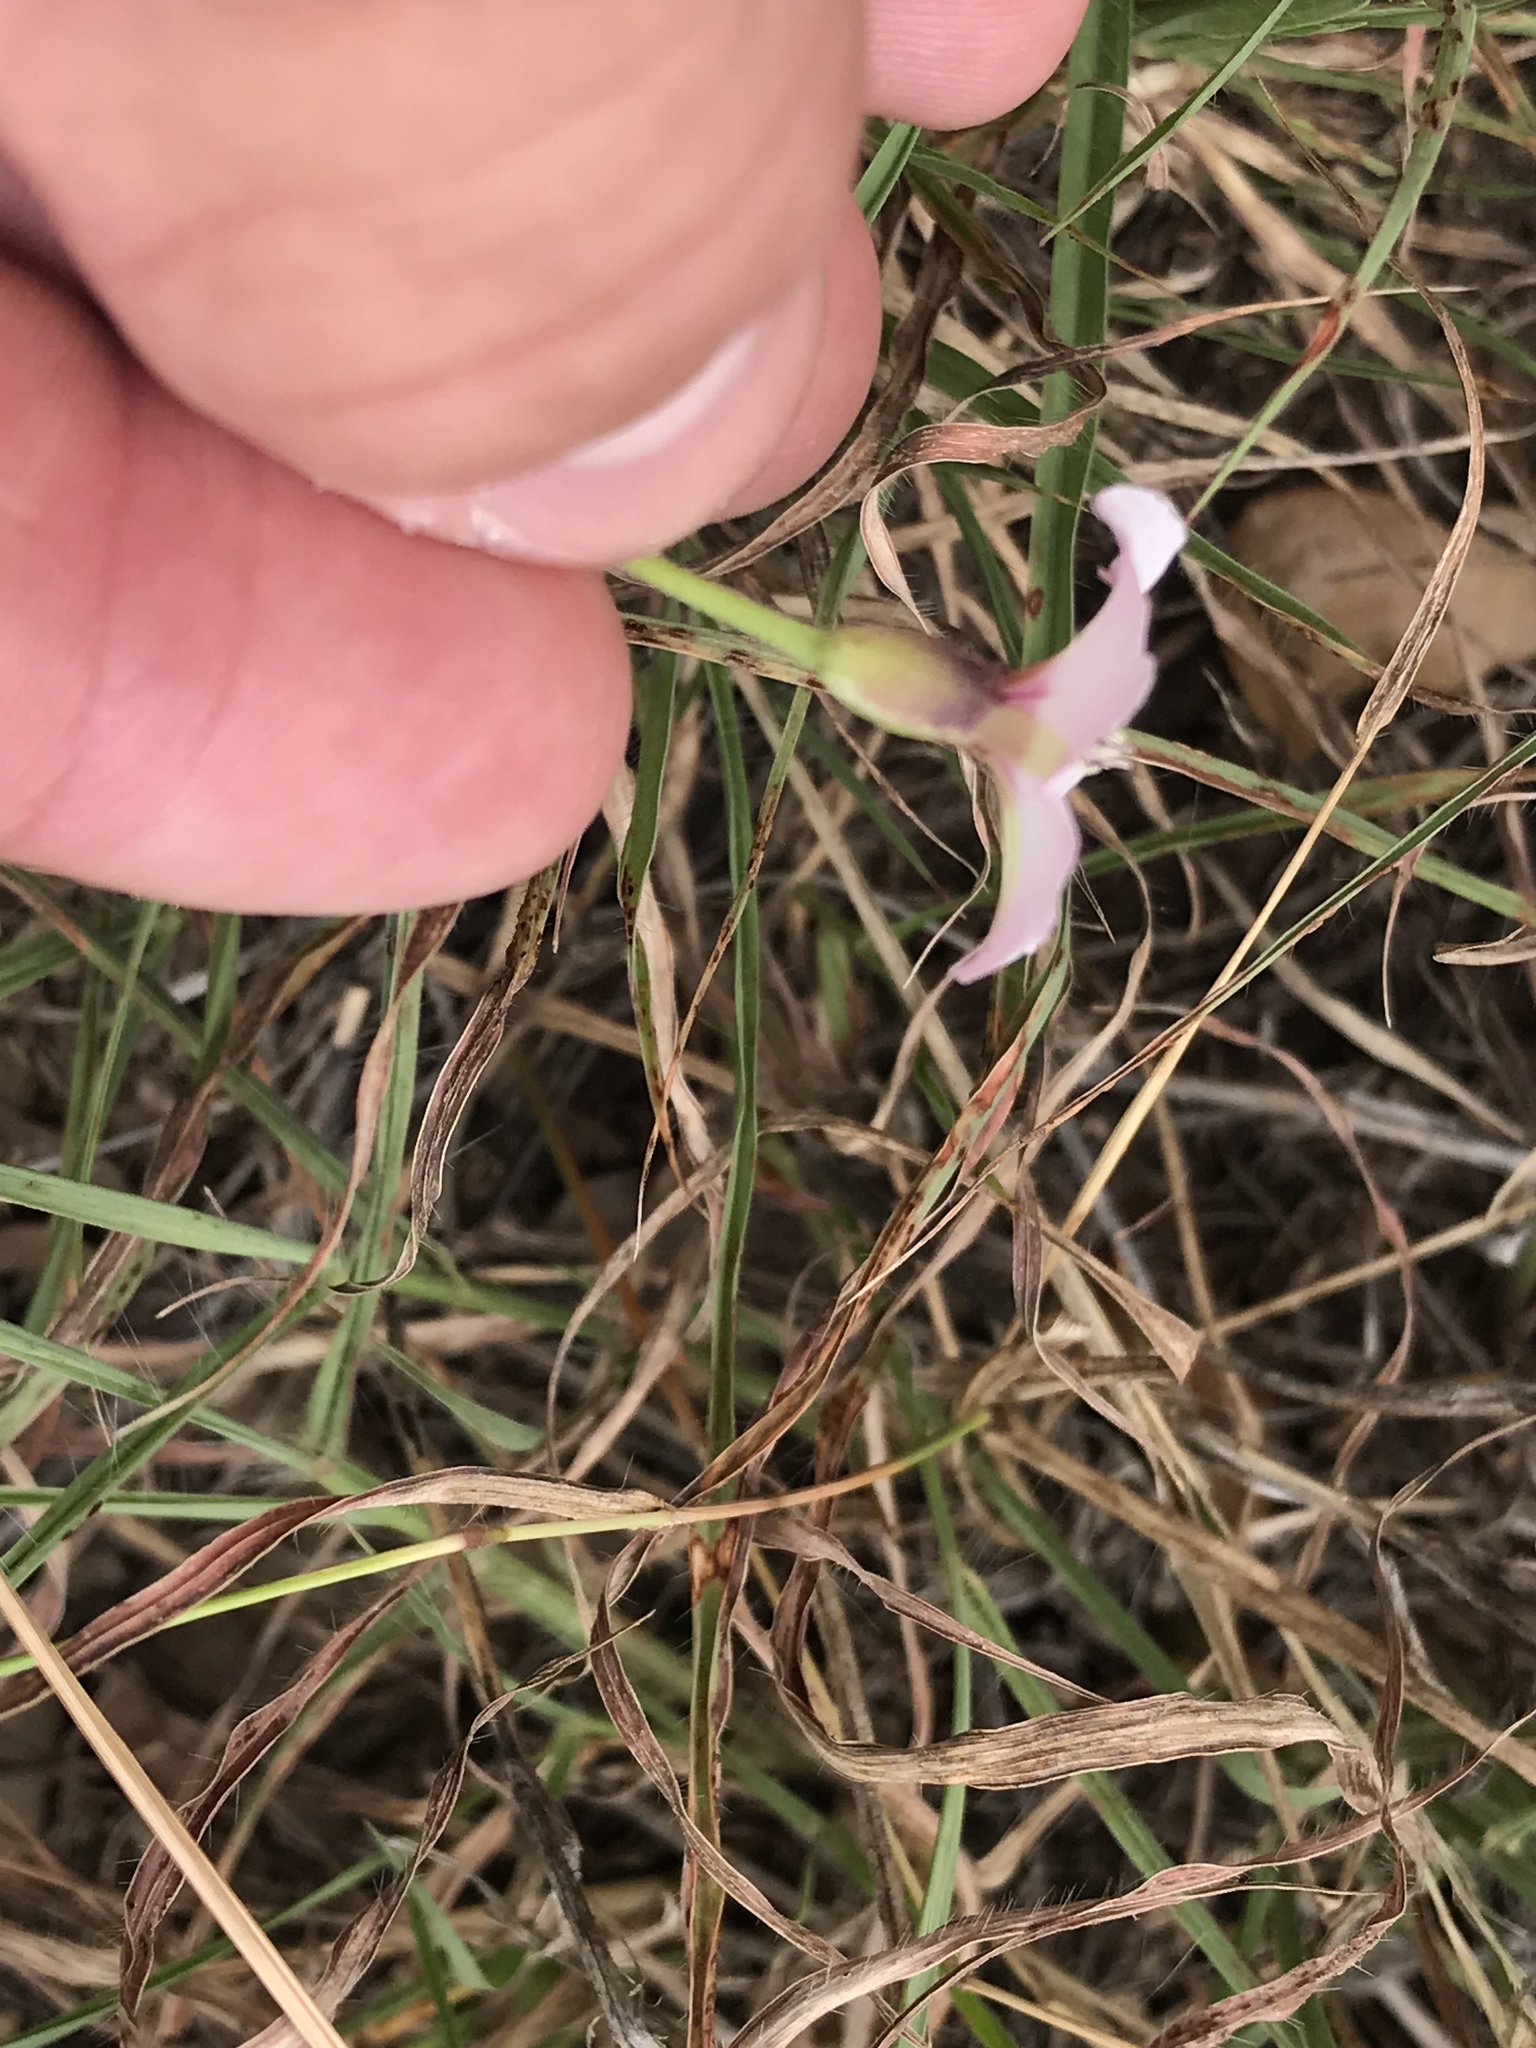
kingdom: Plantae
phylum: Tracheophyta
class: Magnoliopsida
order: Solanales
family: Convolvulaceae
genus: Convolvulus
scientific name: Convolvulus equitans
